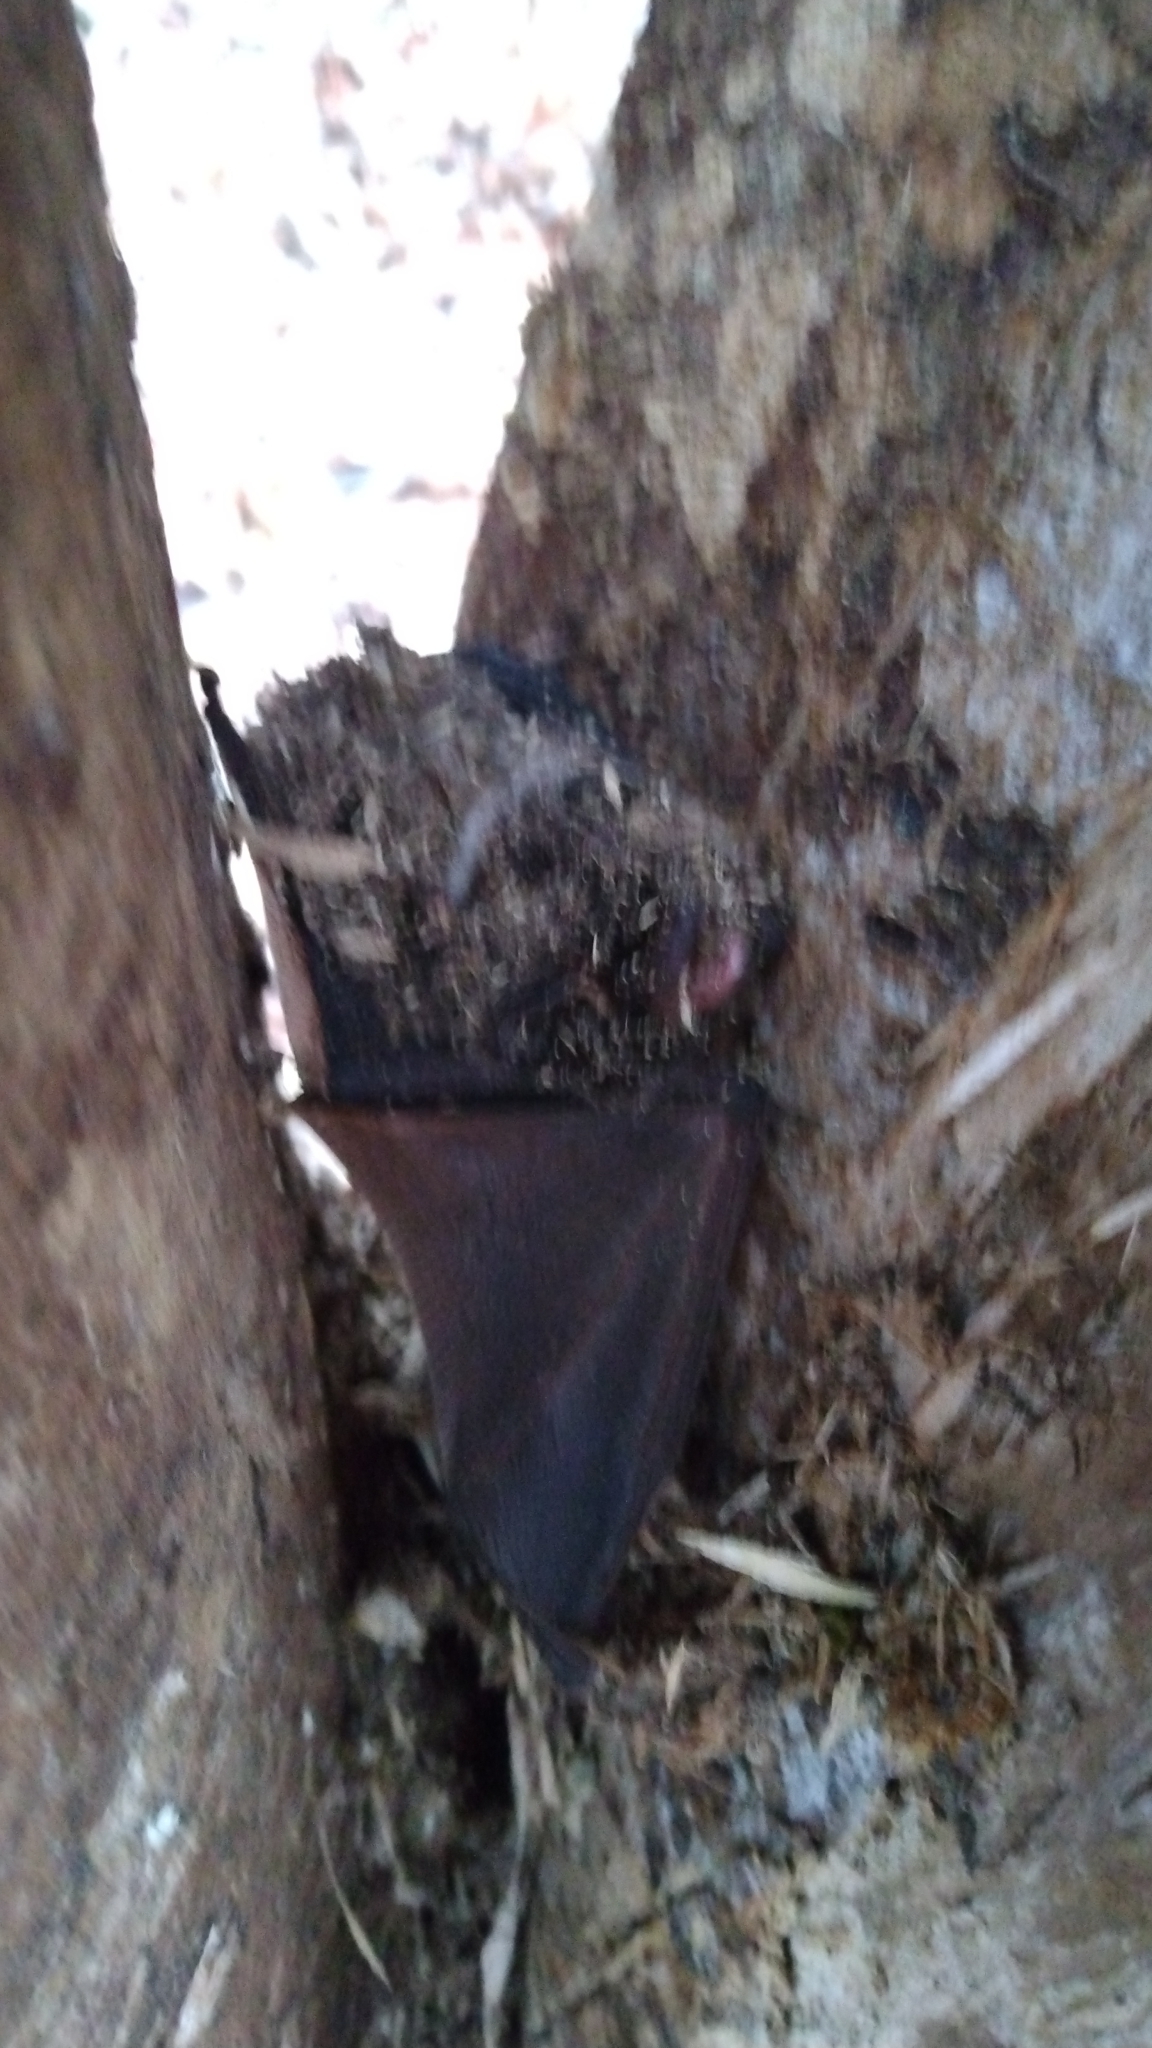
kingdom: Animalia
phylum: Chordata
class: Mammalia
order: Chiroptera
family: Vespertilionidae
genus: Lasionycteris
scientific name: Lasionycteris noctivagans
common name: Silver-haired bat
